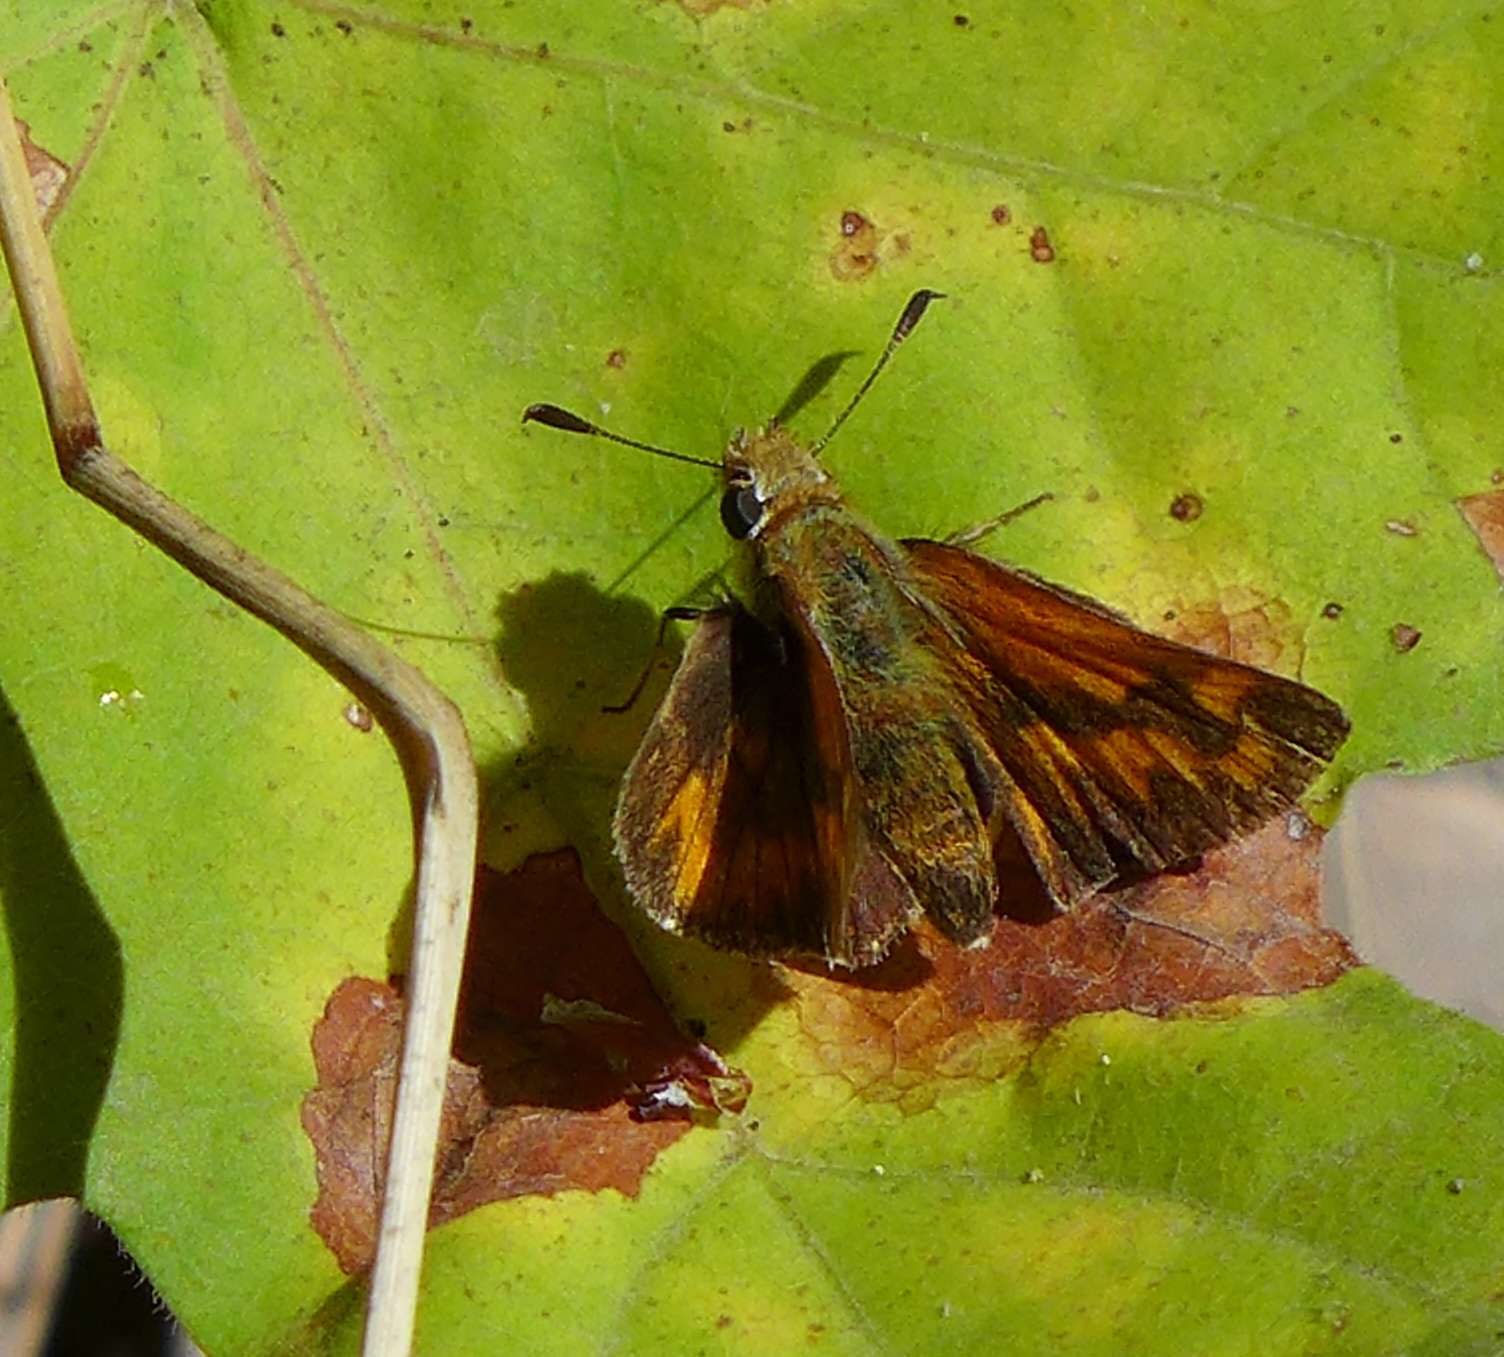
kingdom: Animalia
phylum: Arthropoda
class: Insecta
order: Lepidoptera
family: Hesperiidae
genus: Ochlodes
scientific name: Ochlodes sylvanoides
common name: Woodland skipper
